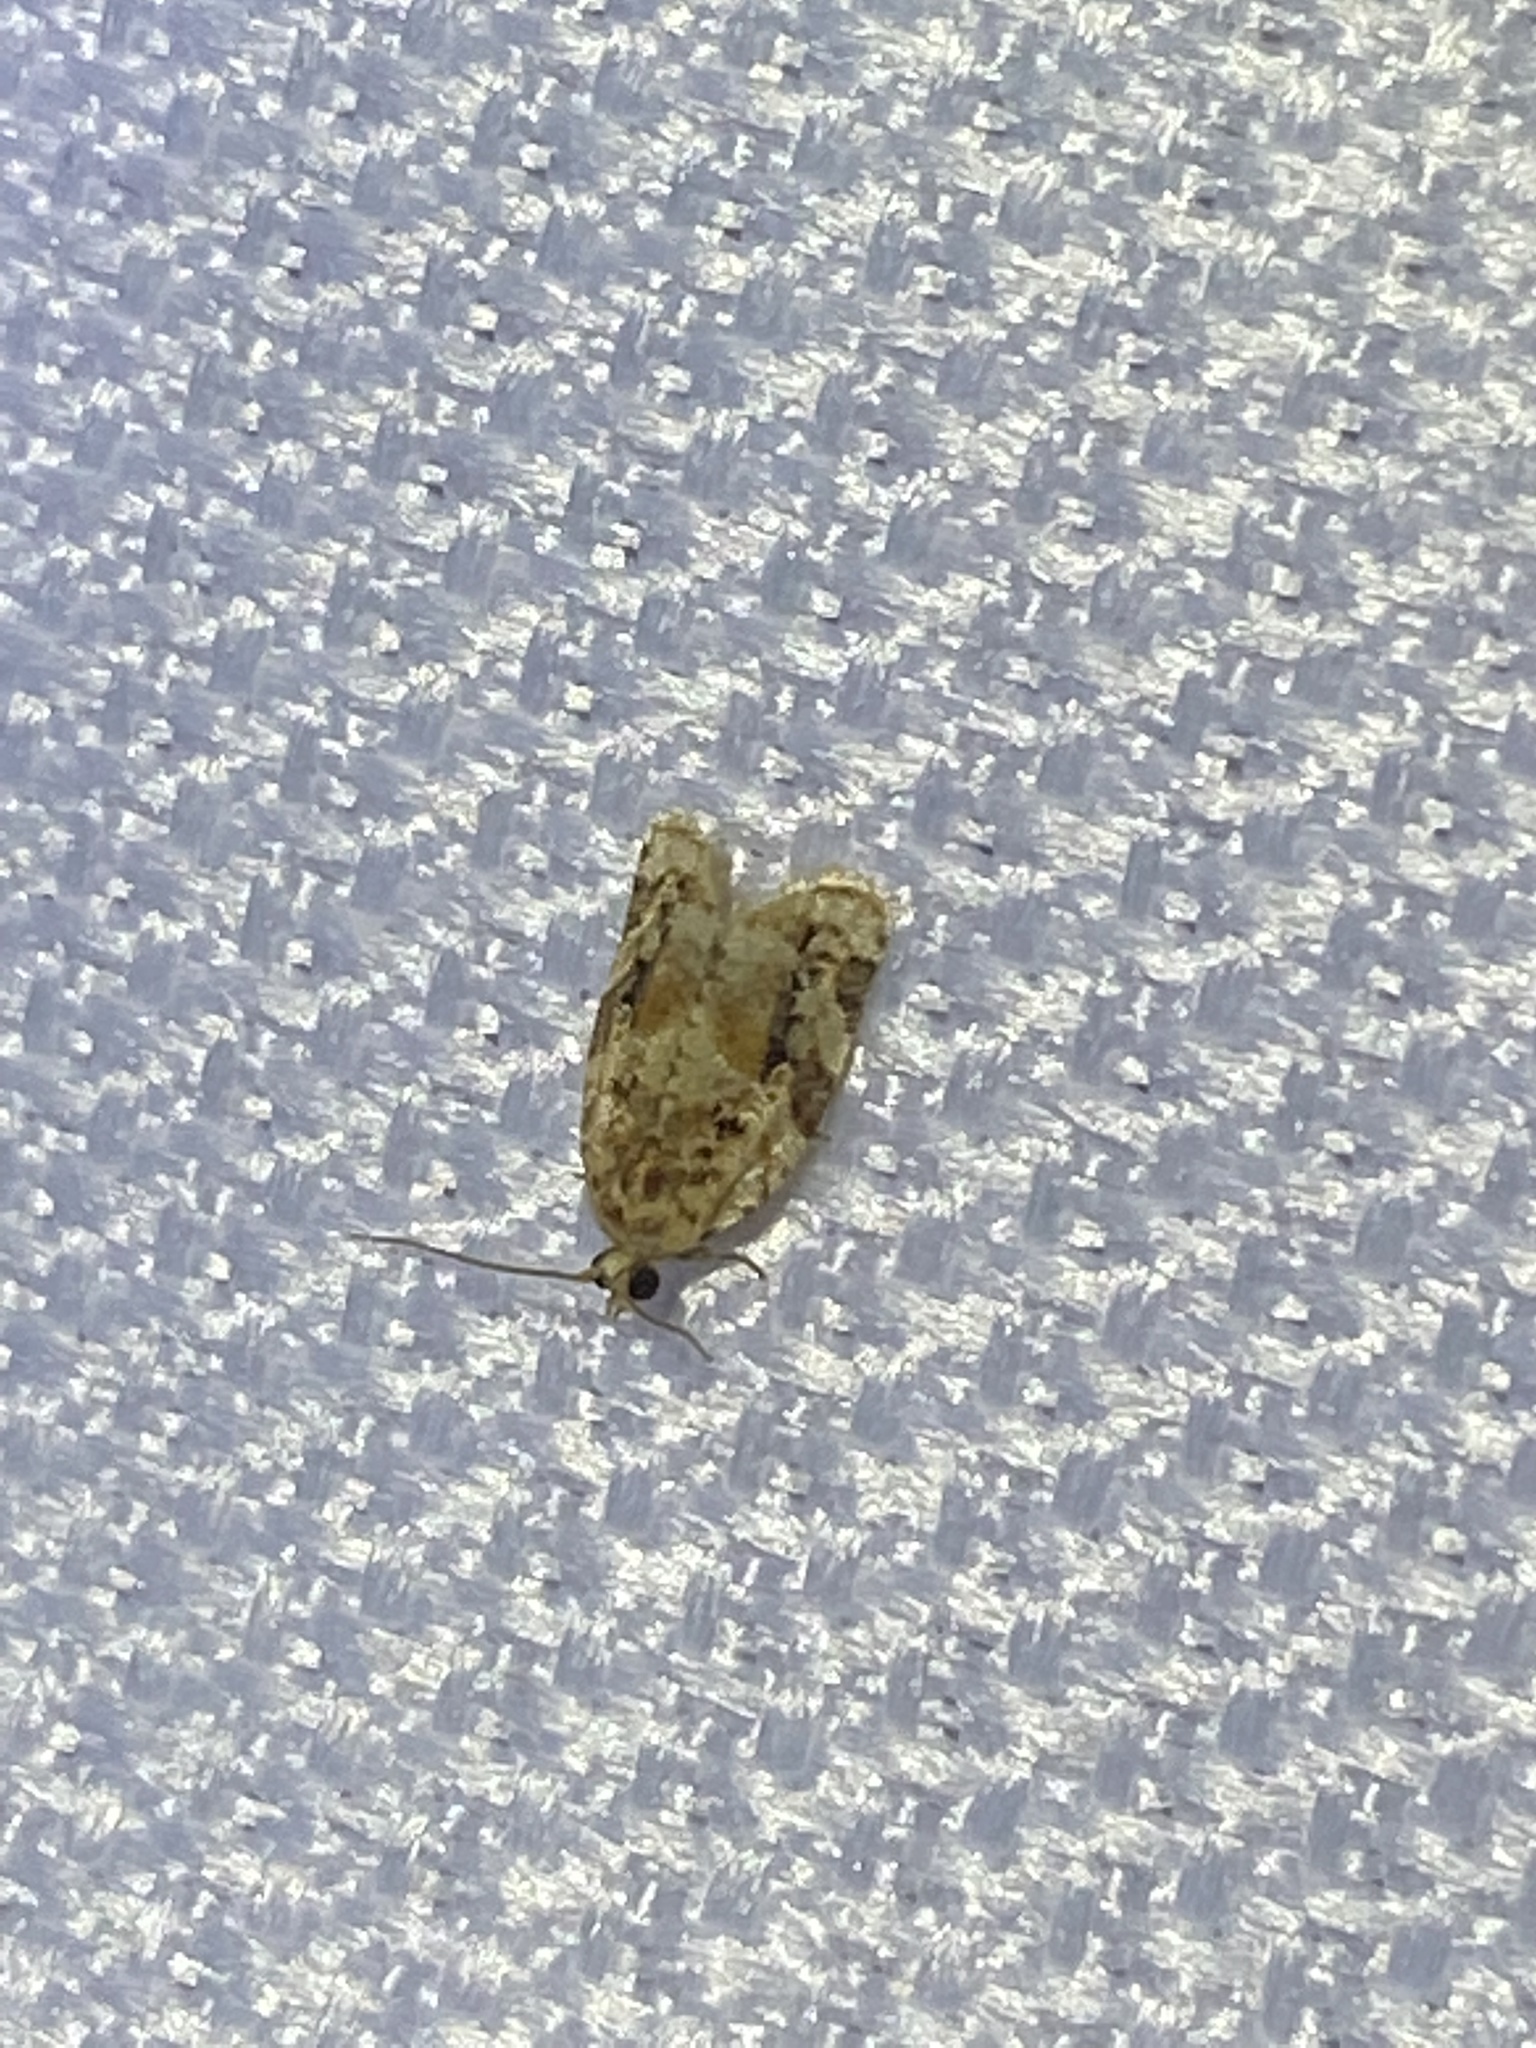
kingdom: Animalia
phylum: Arthropoda
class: Insecta
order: Lepidoptera
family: Tortricidae
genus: Argyrotaenia
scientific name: Argyrotaenia velutinana
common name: Red-banded leafroller moth
